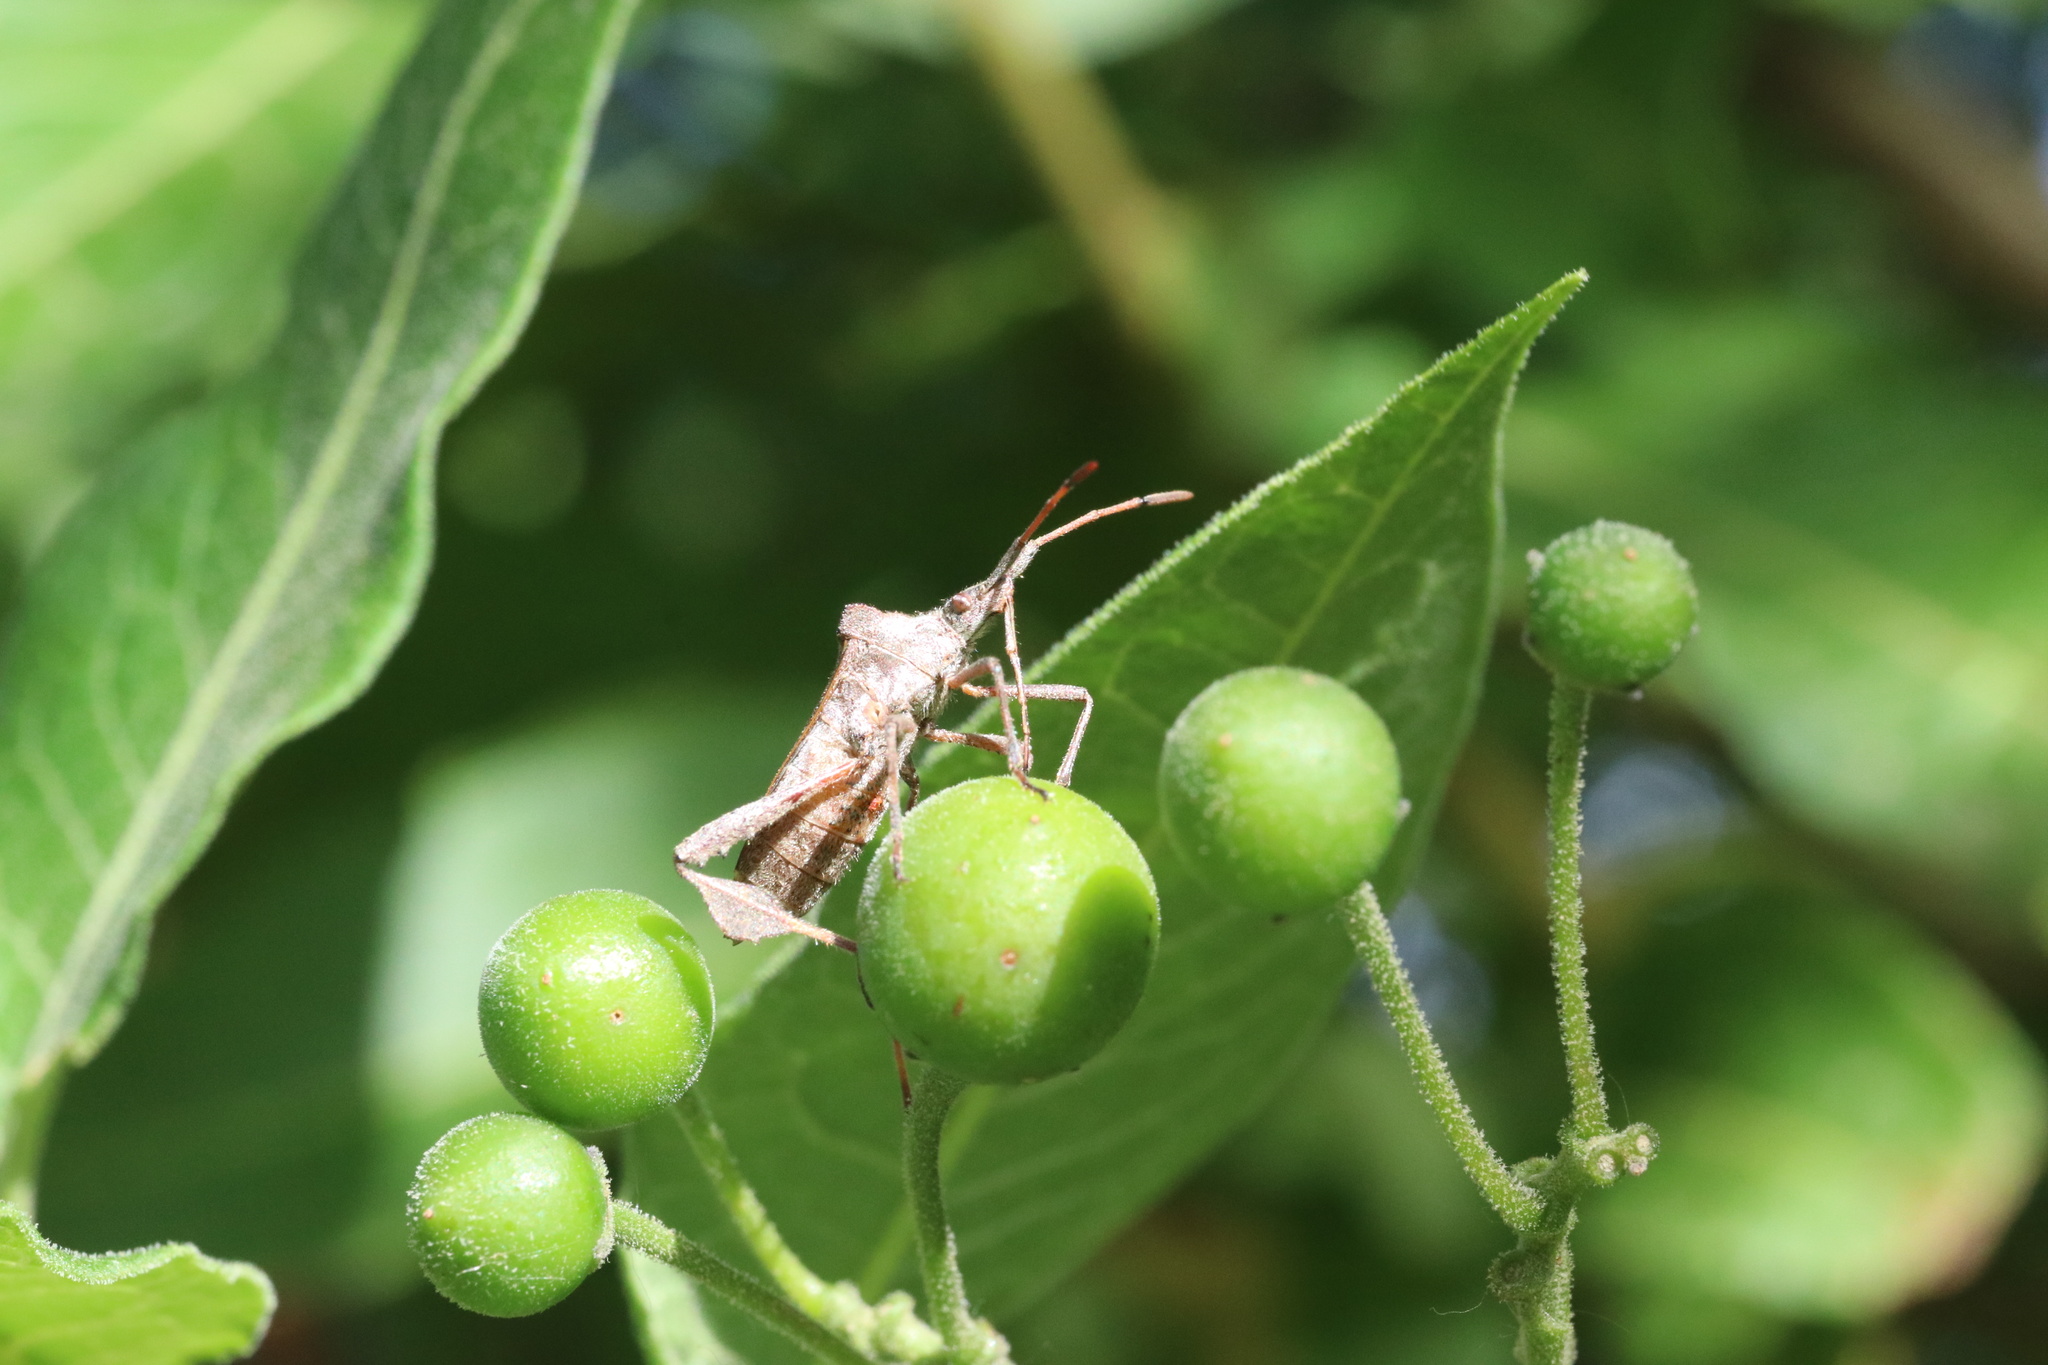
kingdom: Animalia
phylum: Arthropoda
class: Insecta
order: Hemiptera
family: Coreidae
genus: Leptoglossus
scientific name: Leptoglossus chilensis
